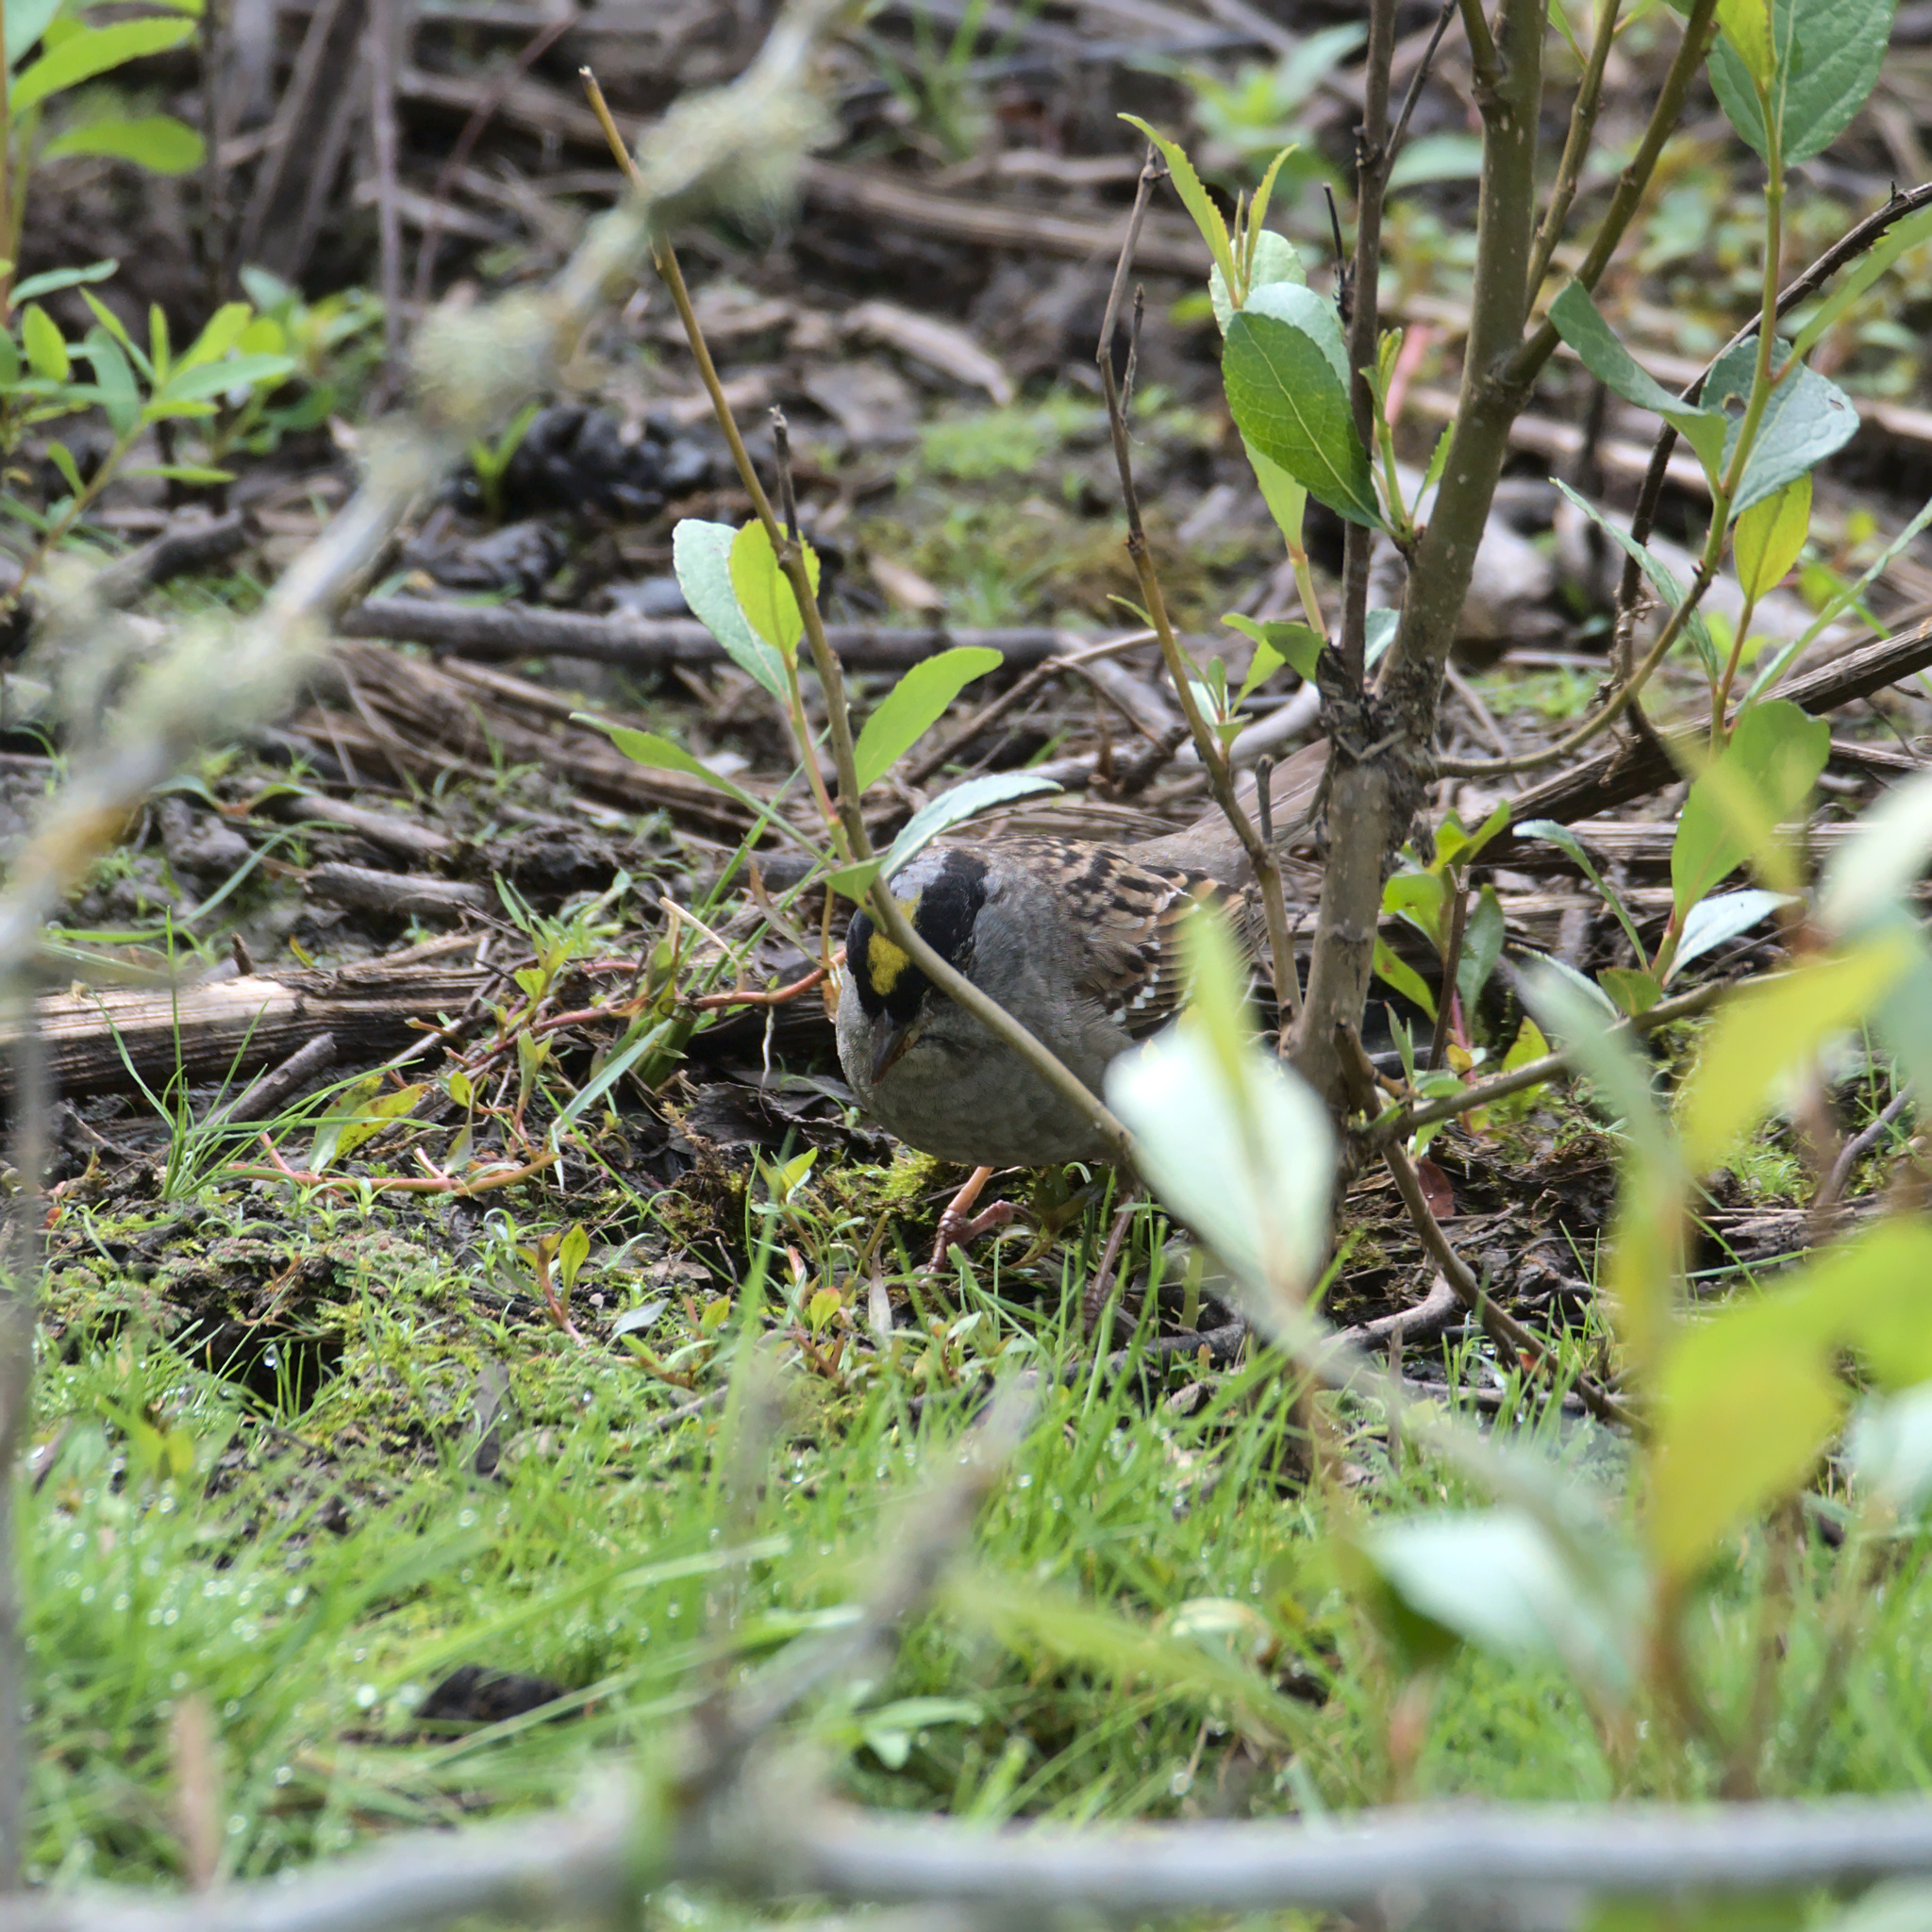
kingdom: Animalia
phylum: Chordata
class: Aves
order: Passeriformes
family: Passerellidae
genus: Zonotrichia
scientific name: Zonotrichia atricapilla
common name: Golden-crowned sparrow
